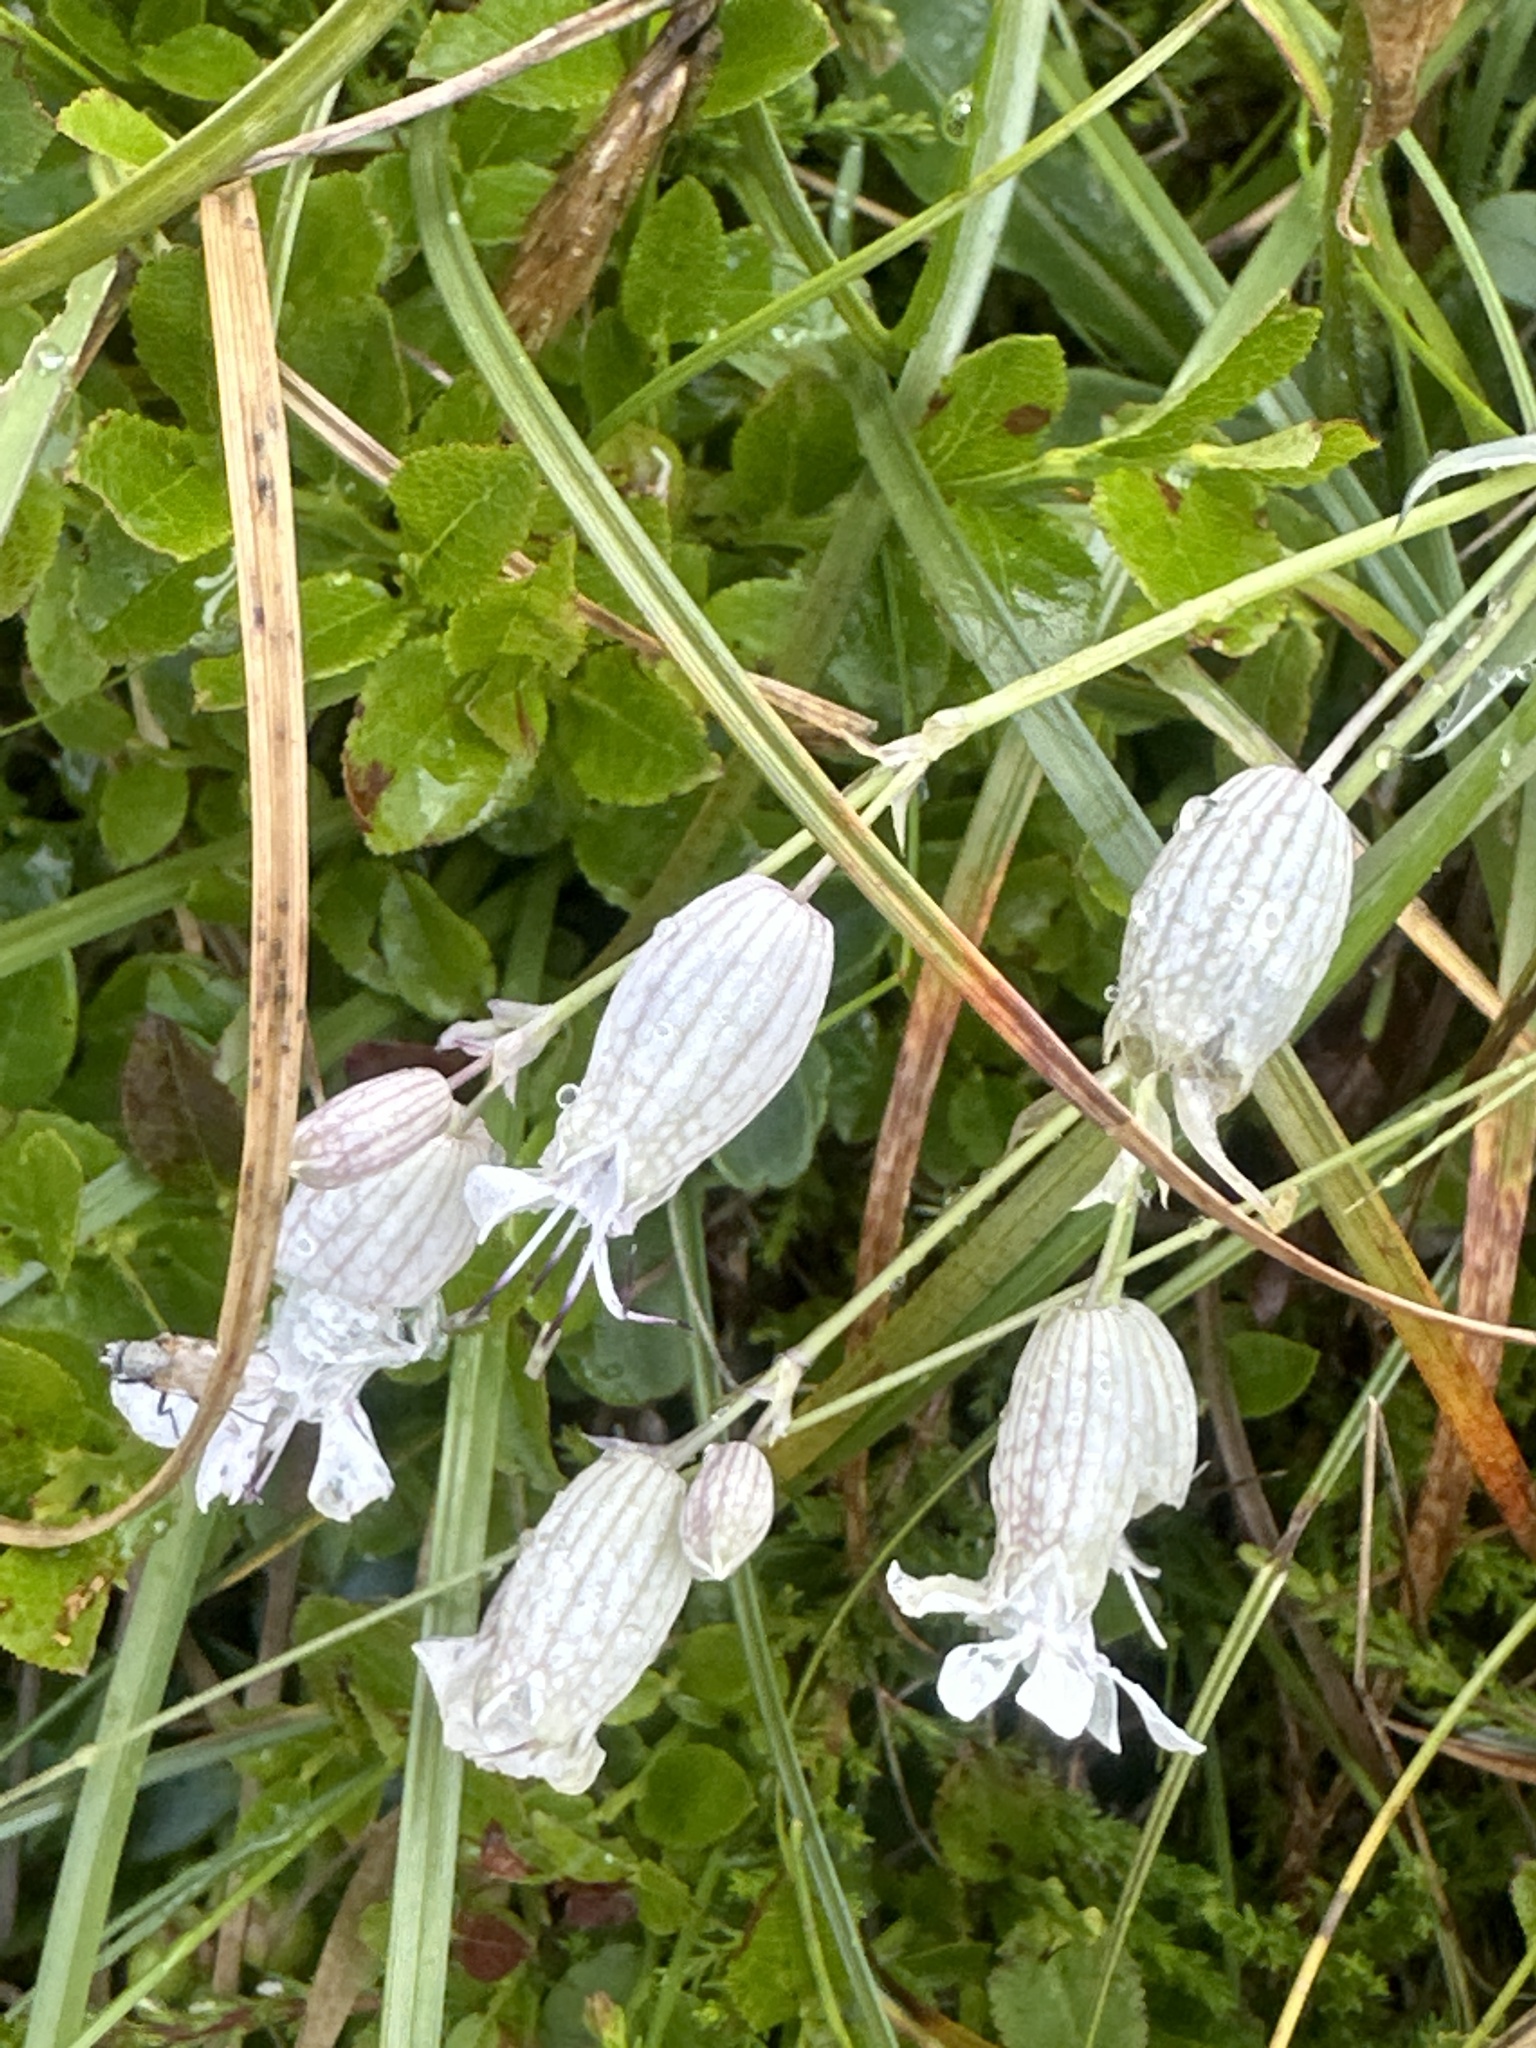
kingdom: Plantae
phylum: Tracheophyta
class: Magnoliopsida
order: Caryophyllales
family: Caryophyllaceae
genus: Silene
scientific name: Silene vulgaris
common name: Bladder campion
